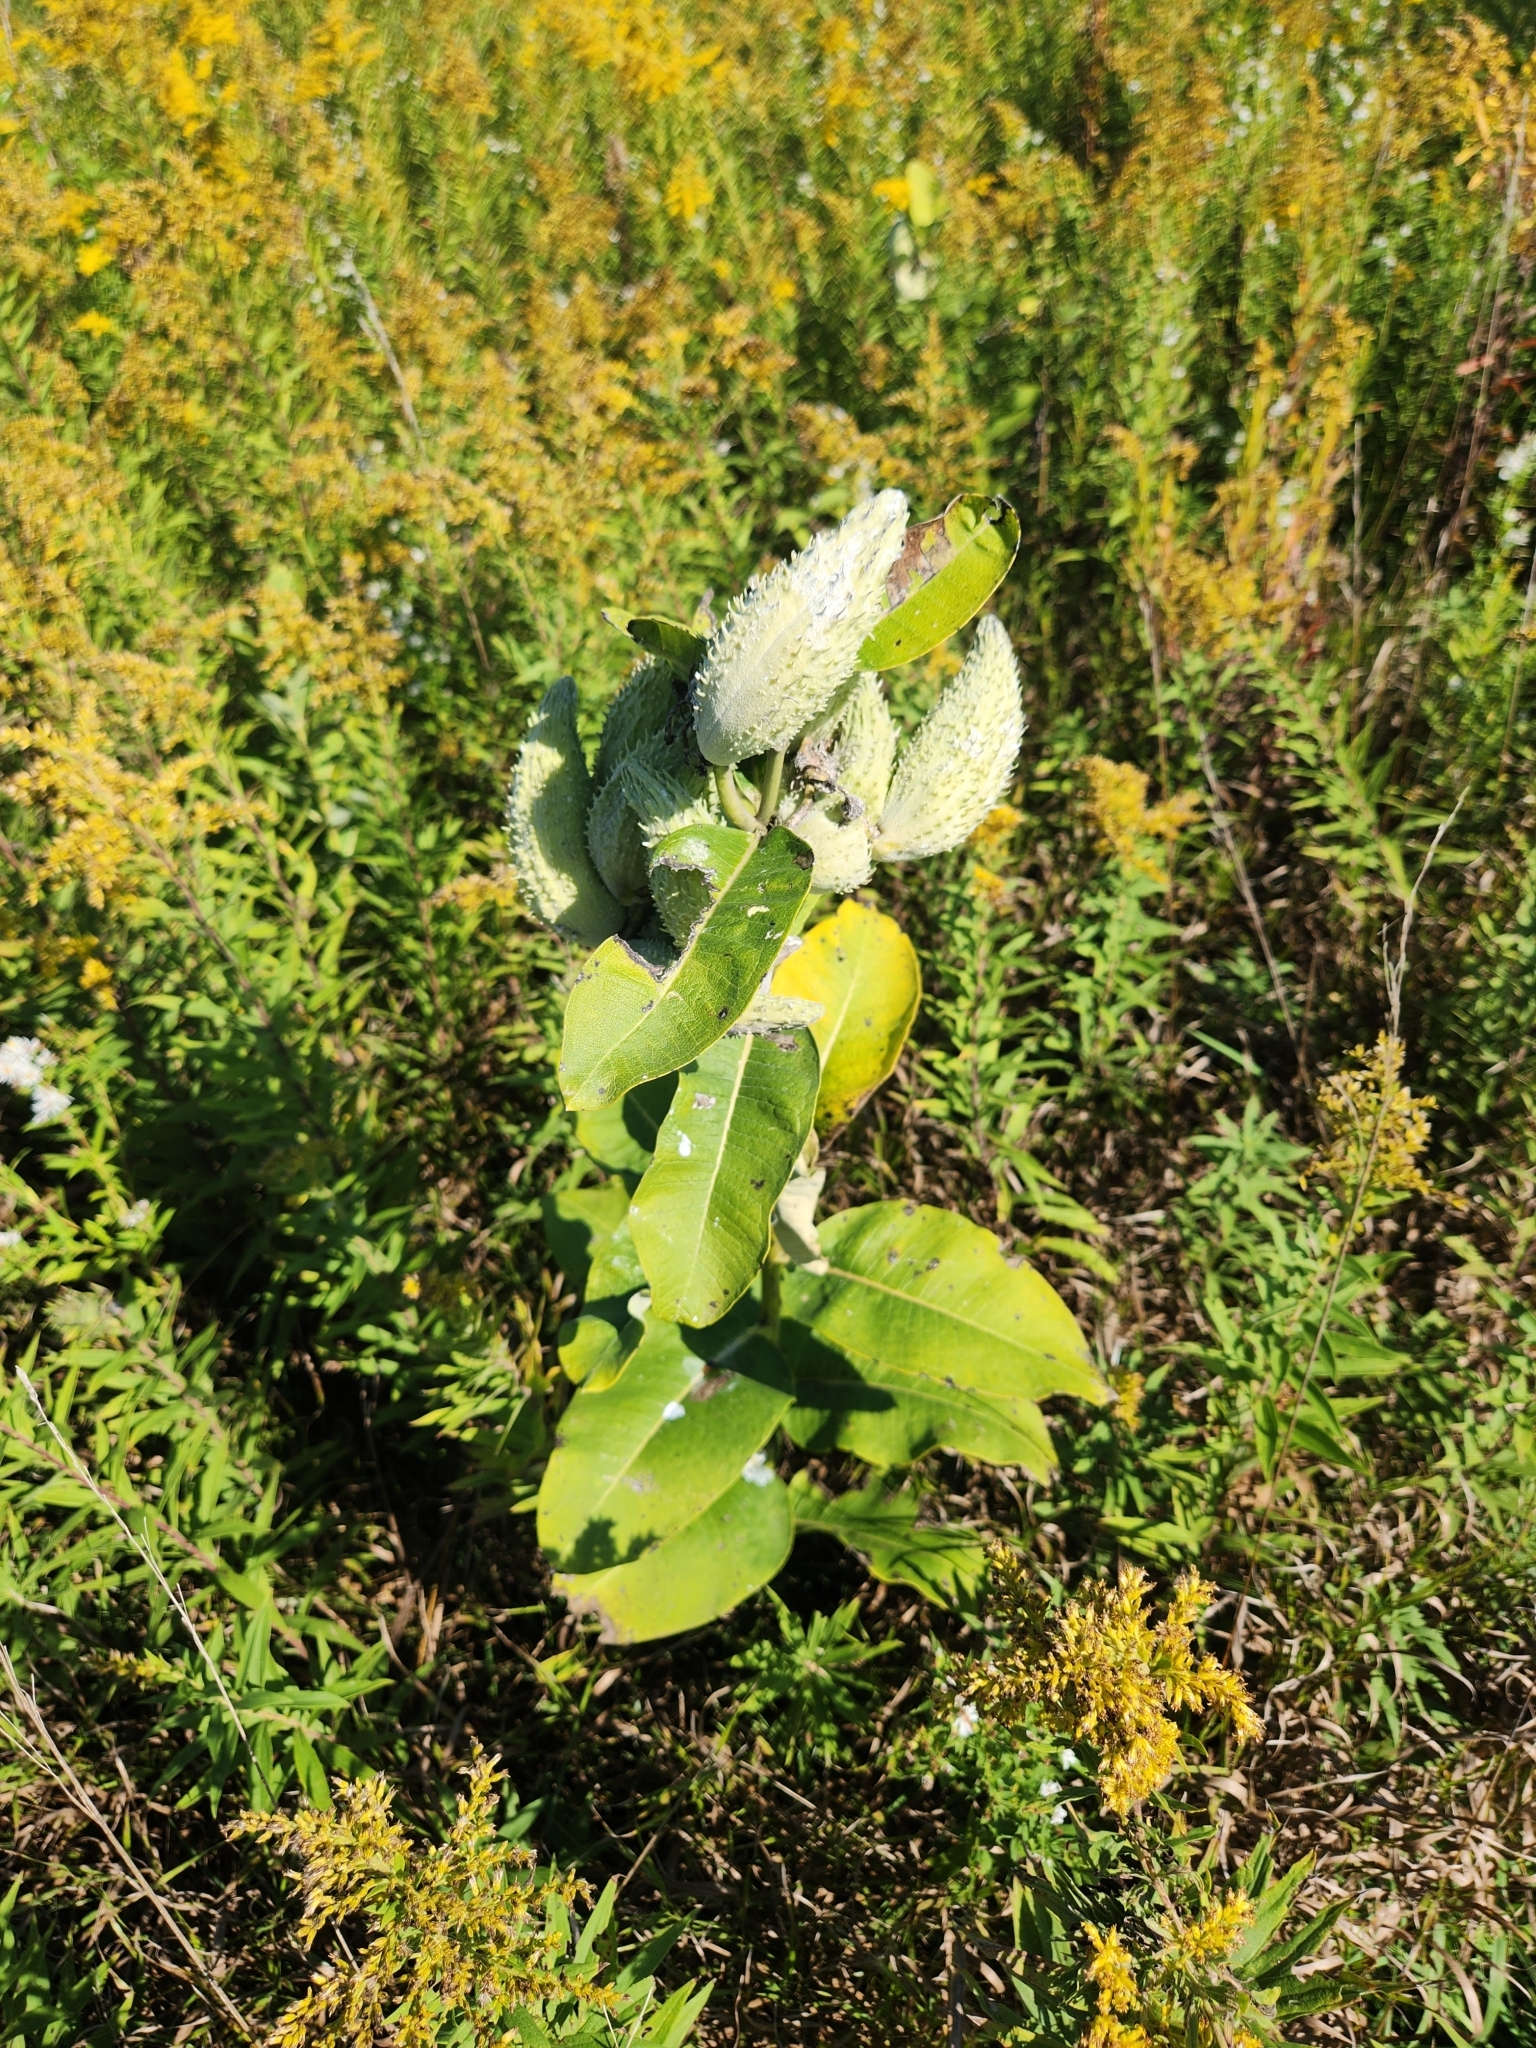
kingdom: Plantae
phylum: Tracheophyta
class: Magnoliopsida
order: Gentianales
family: Apocynaceae
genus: Asclepias
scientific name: Asclepias syriaca
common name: Common milkweed
